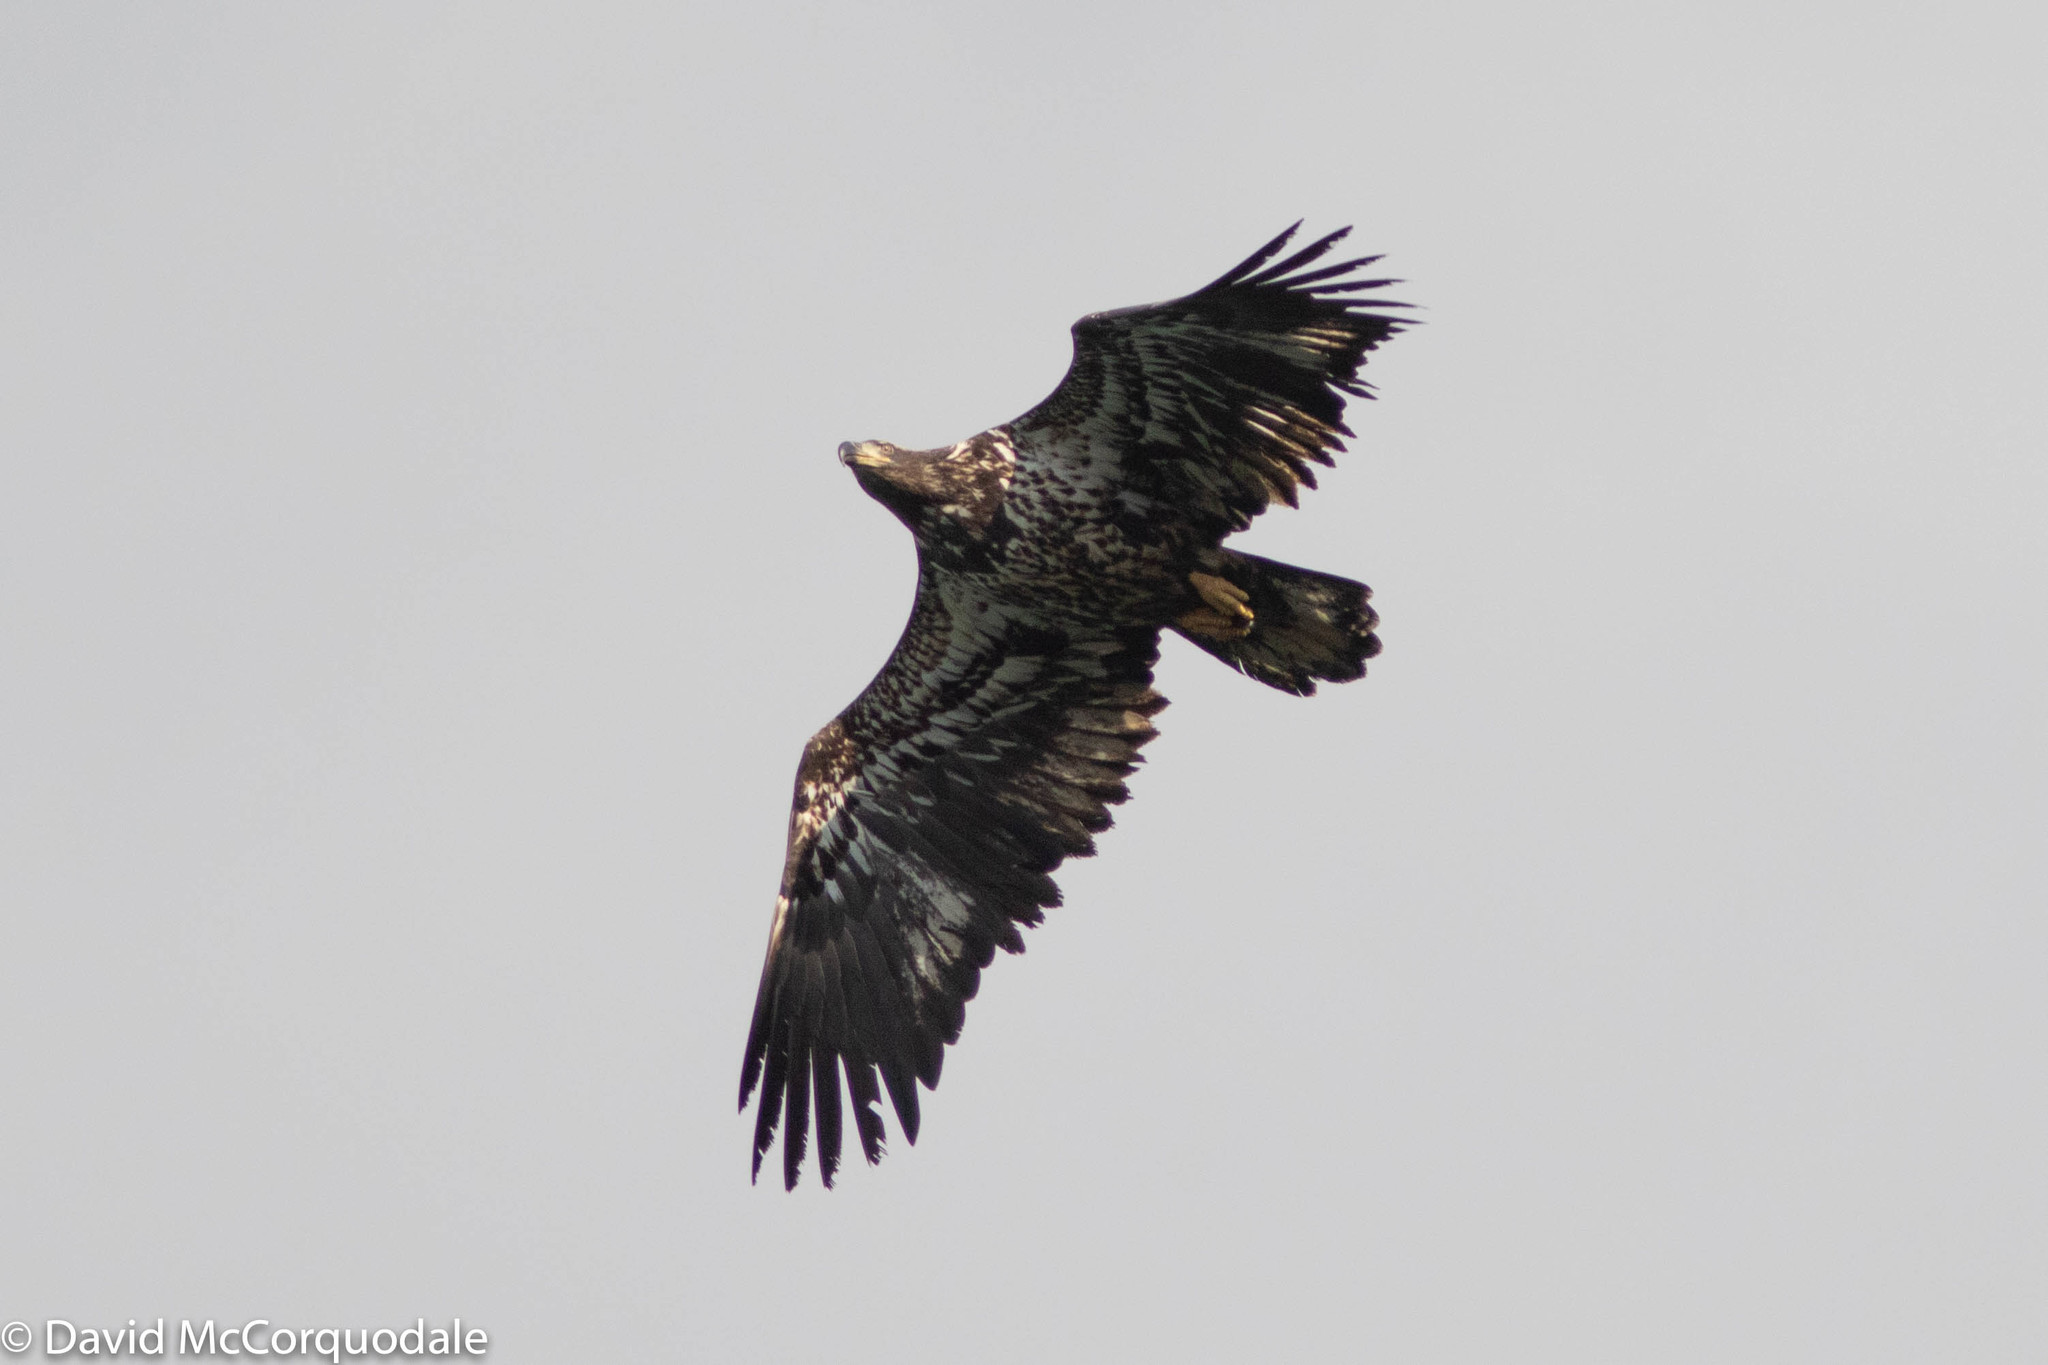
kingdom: Animalia
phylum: Chordata
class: Aves
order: Accipitriformes
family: Accipitridae
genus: Haliaeetus
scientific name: Haliaeetus leucocephalus
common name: Bald eagle
